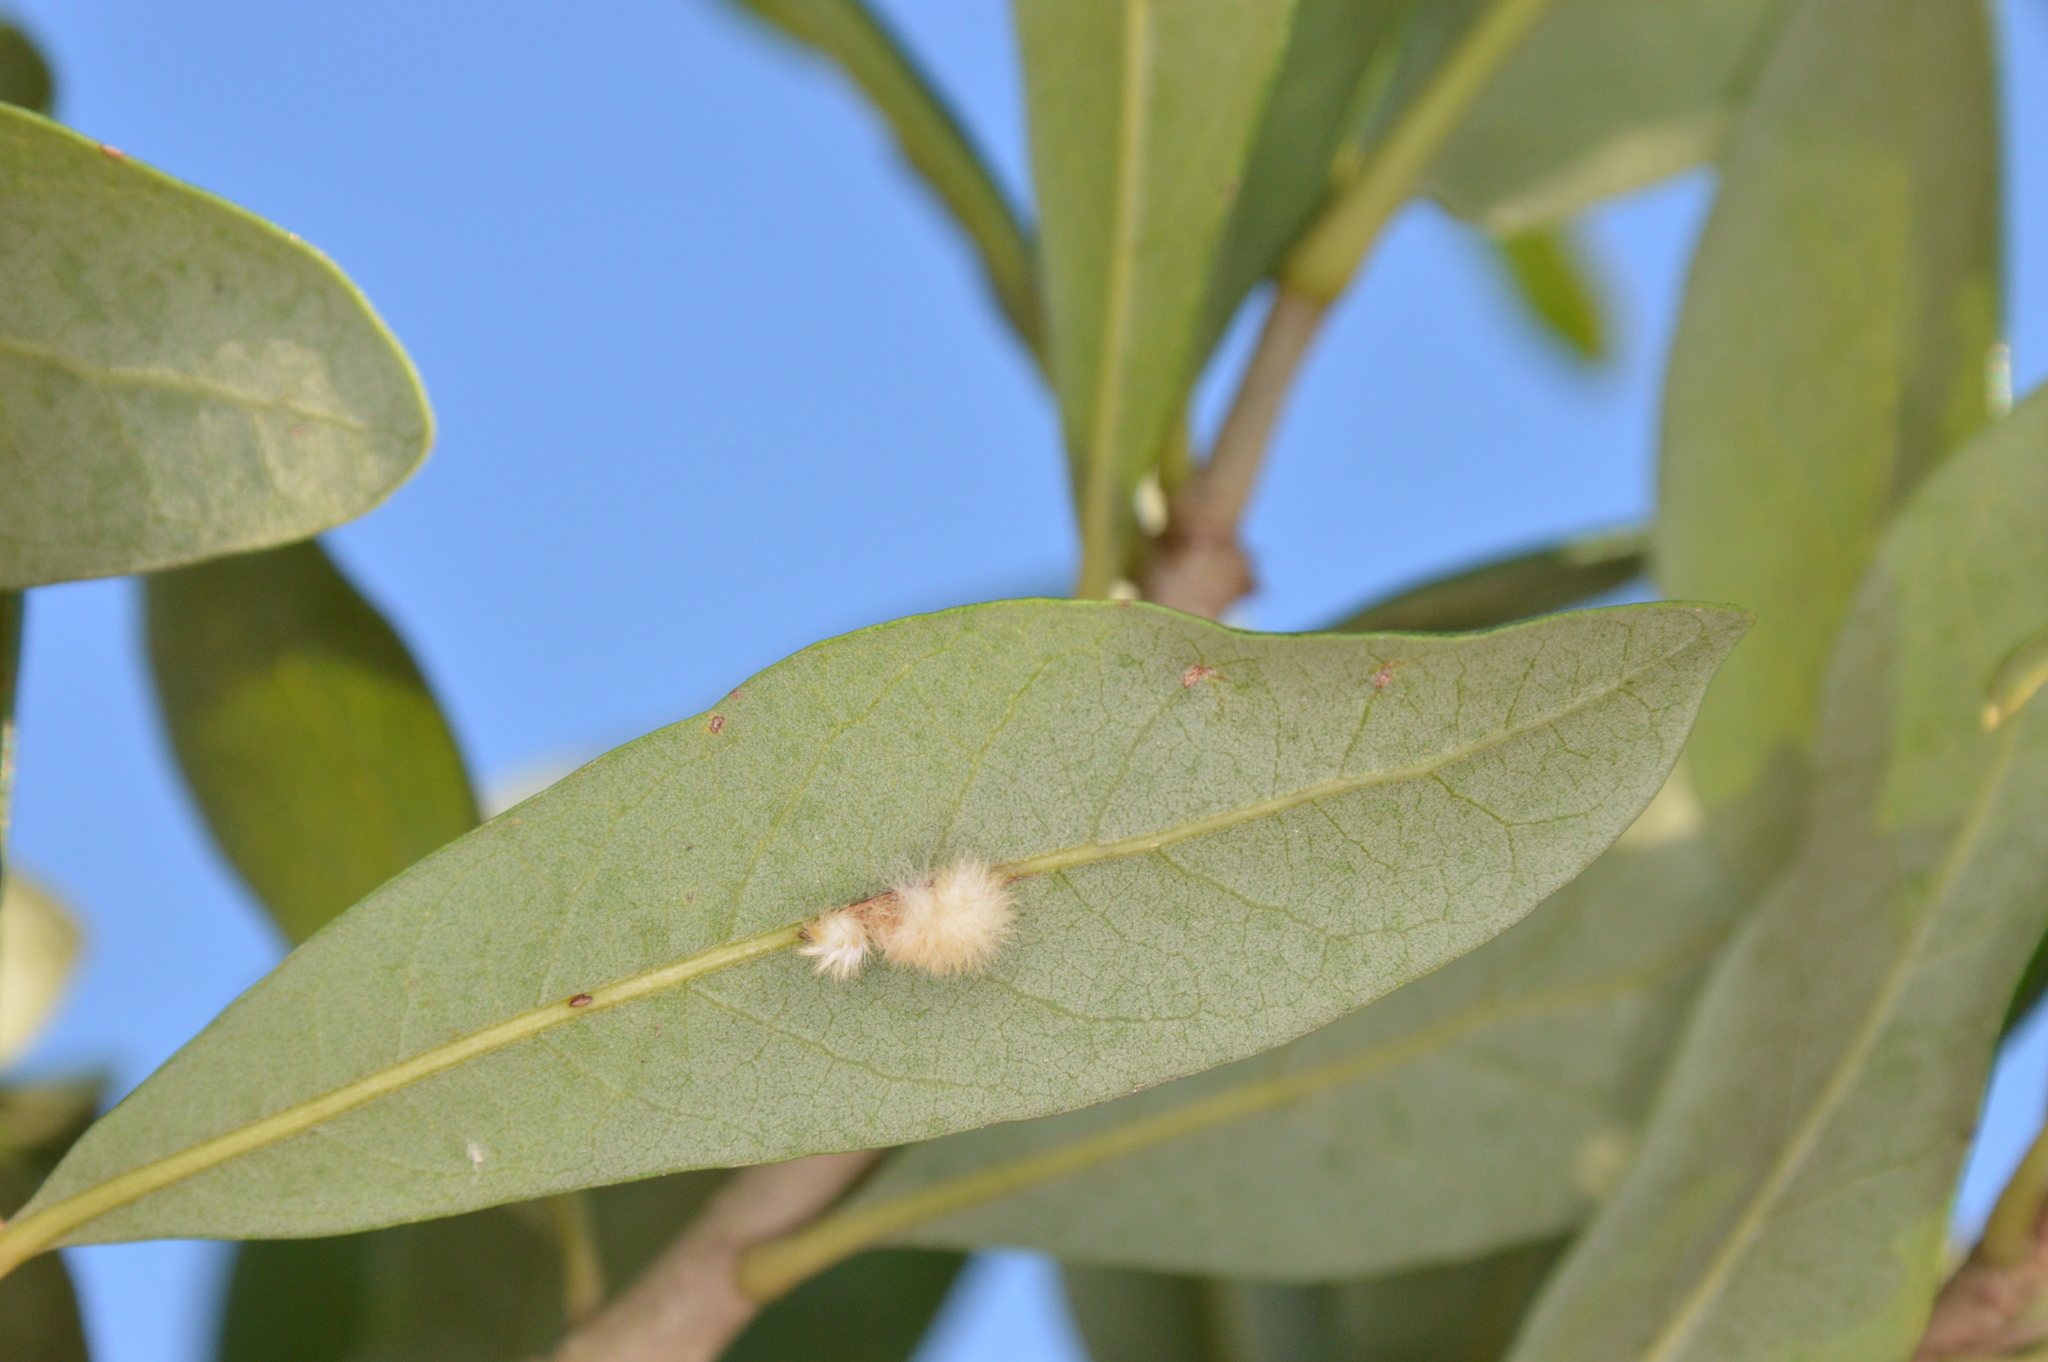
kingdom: Animalia
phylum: Arthropoda
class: Insecta
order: Hymenoptera
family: Cynipidae
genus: Andricus
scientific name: Andricus Druon quercuslanigerum
